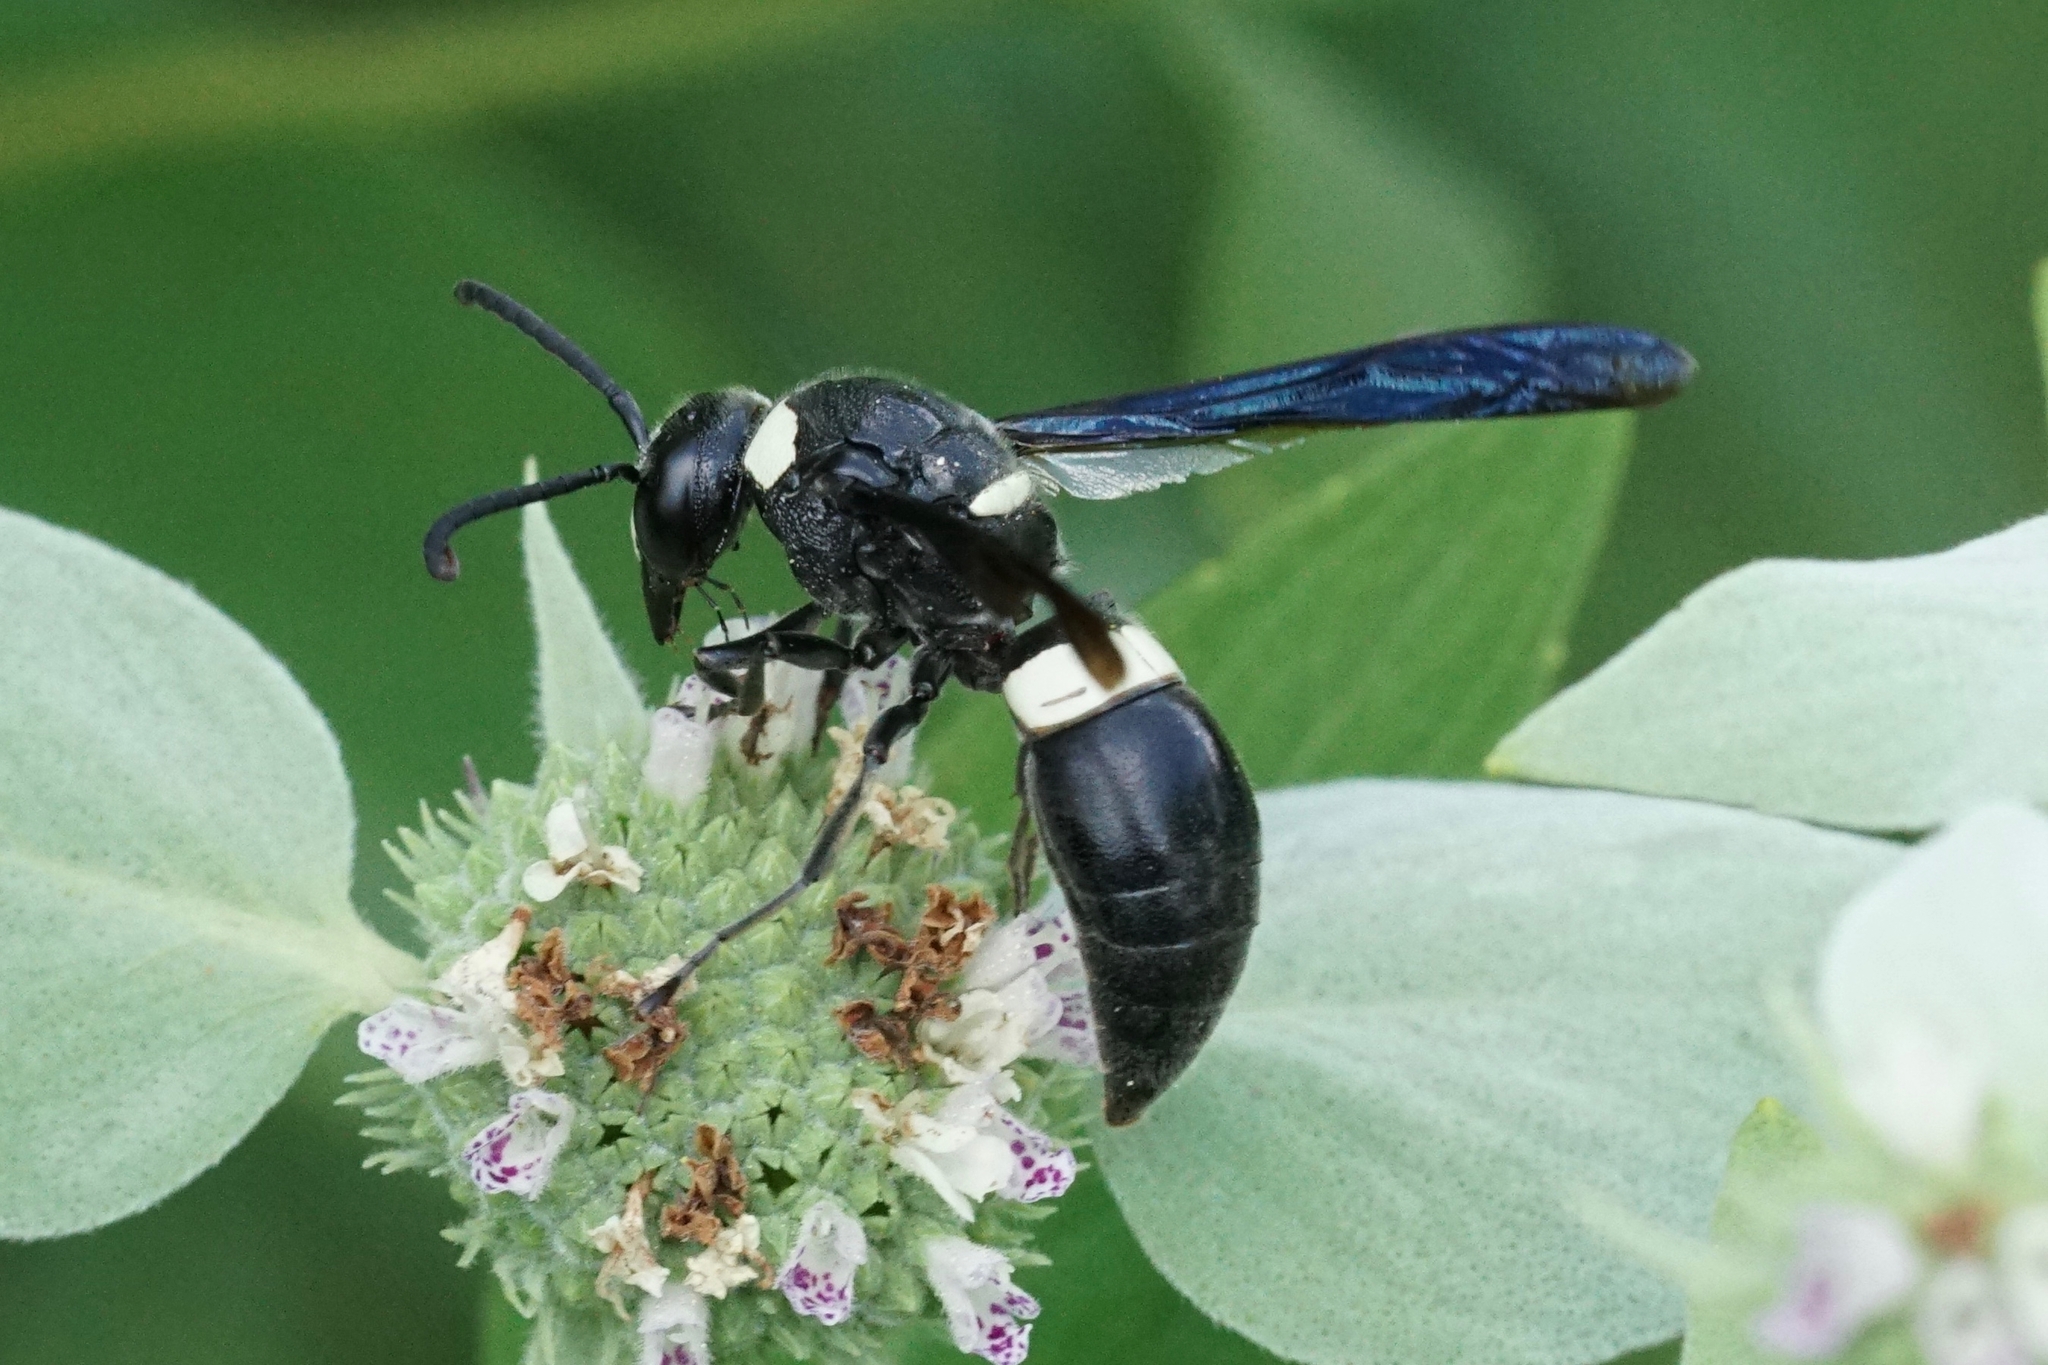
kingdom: Animalia
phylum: Arthropoda
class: Insecta
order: Hymenoptera
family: Eumenidae
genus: Monobia
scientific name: Monobia quadridens
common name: Four-toothed mason wasp
